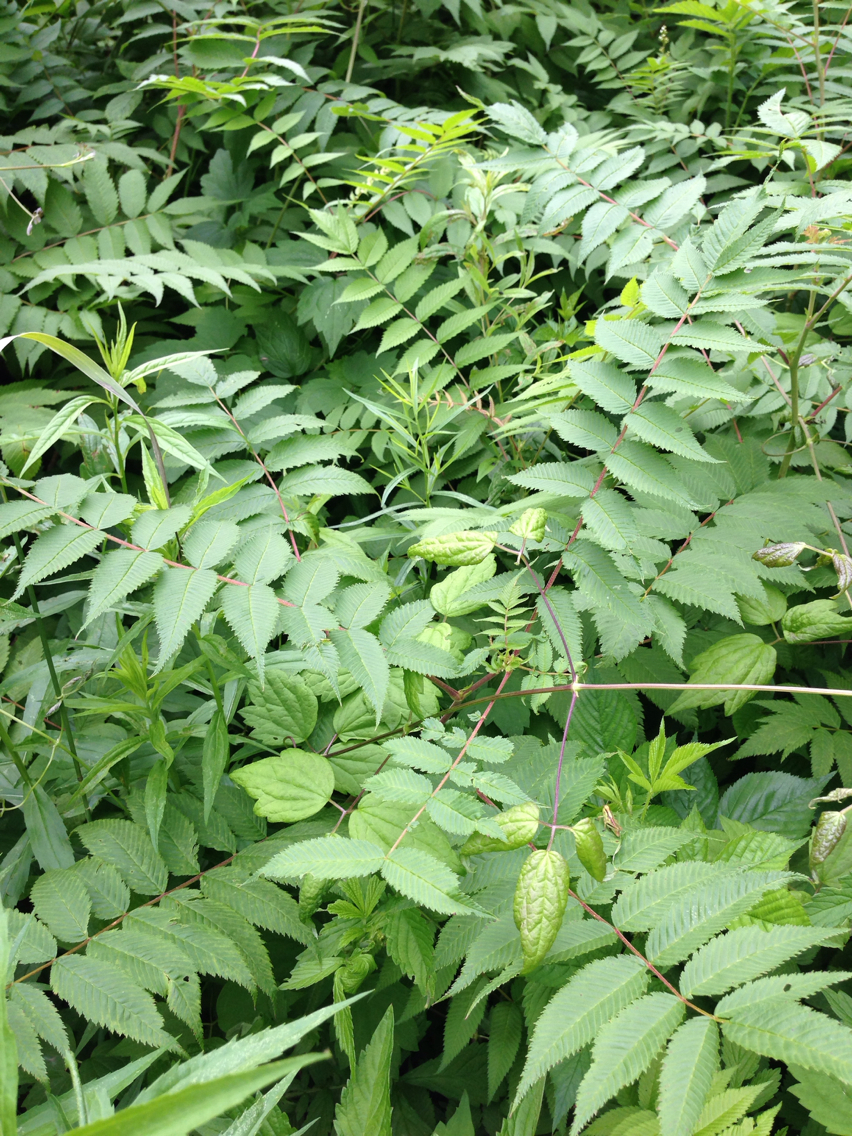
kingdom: Plantae
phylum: Tracheophyta
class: Magnoliopsida
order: Rosales
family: Rosaceae
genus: Sorbaria
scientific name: Sorbaria sorbifolia
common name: False spiraea
